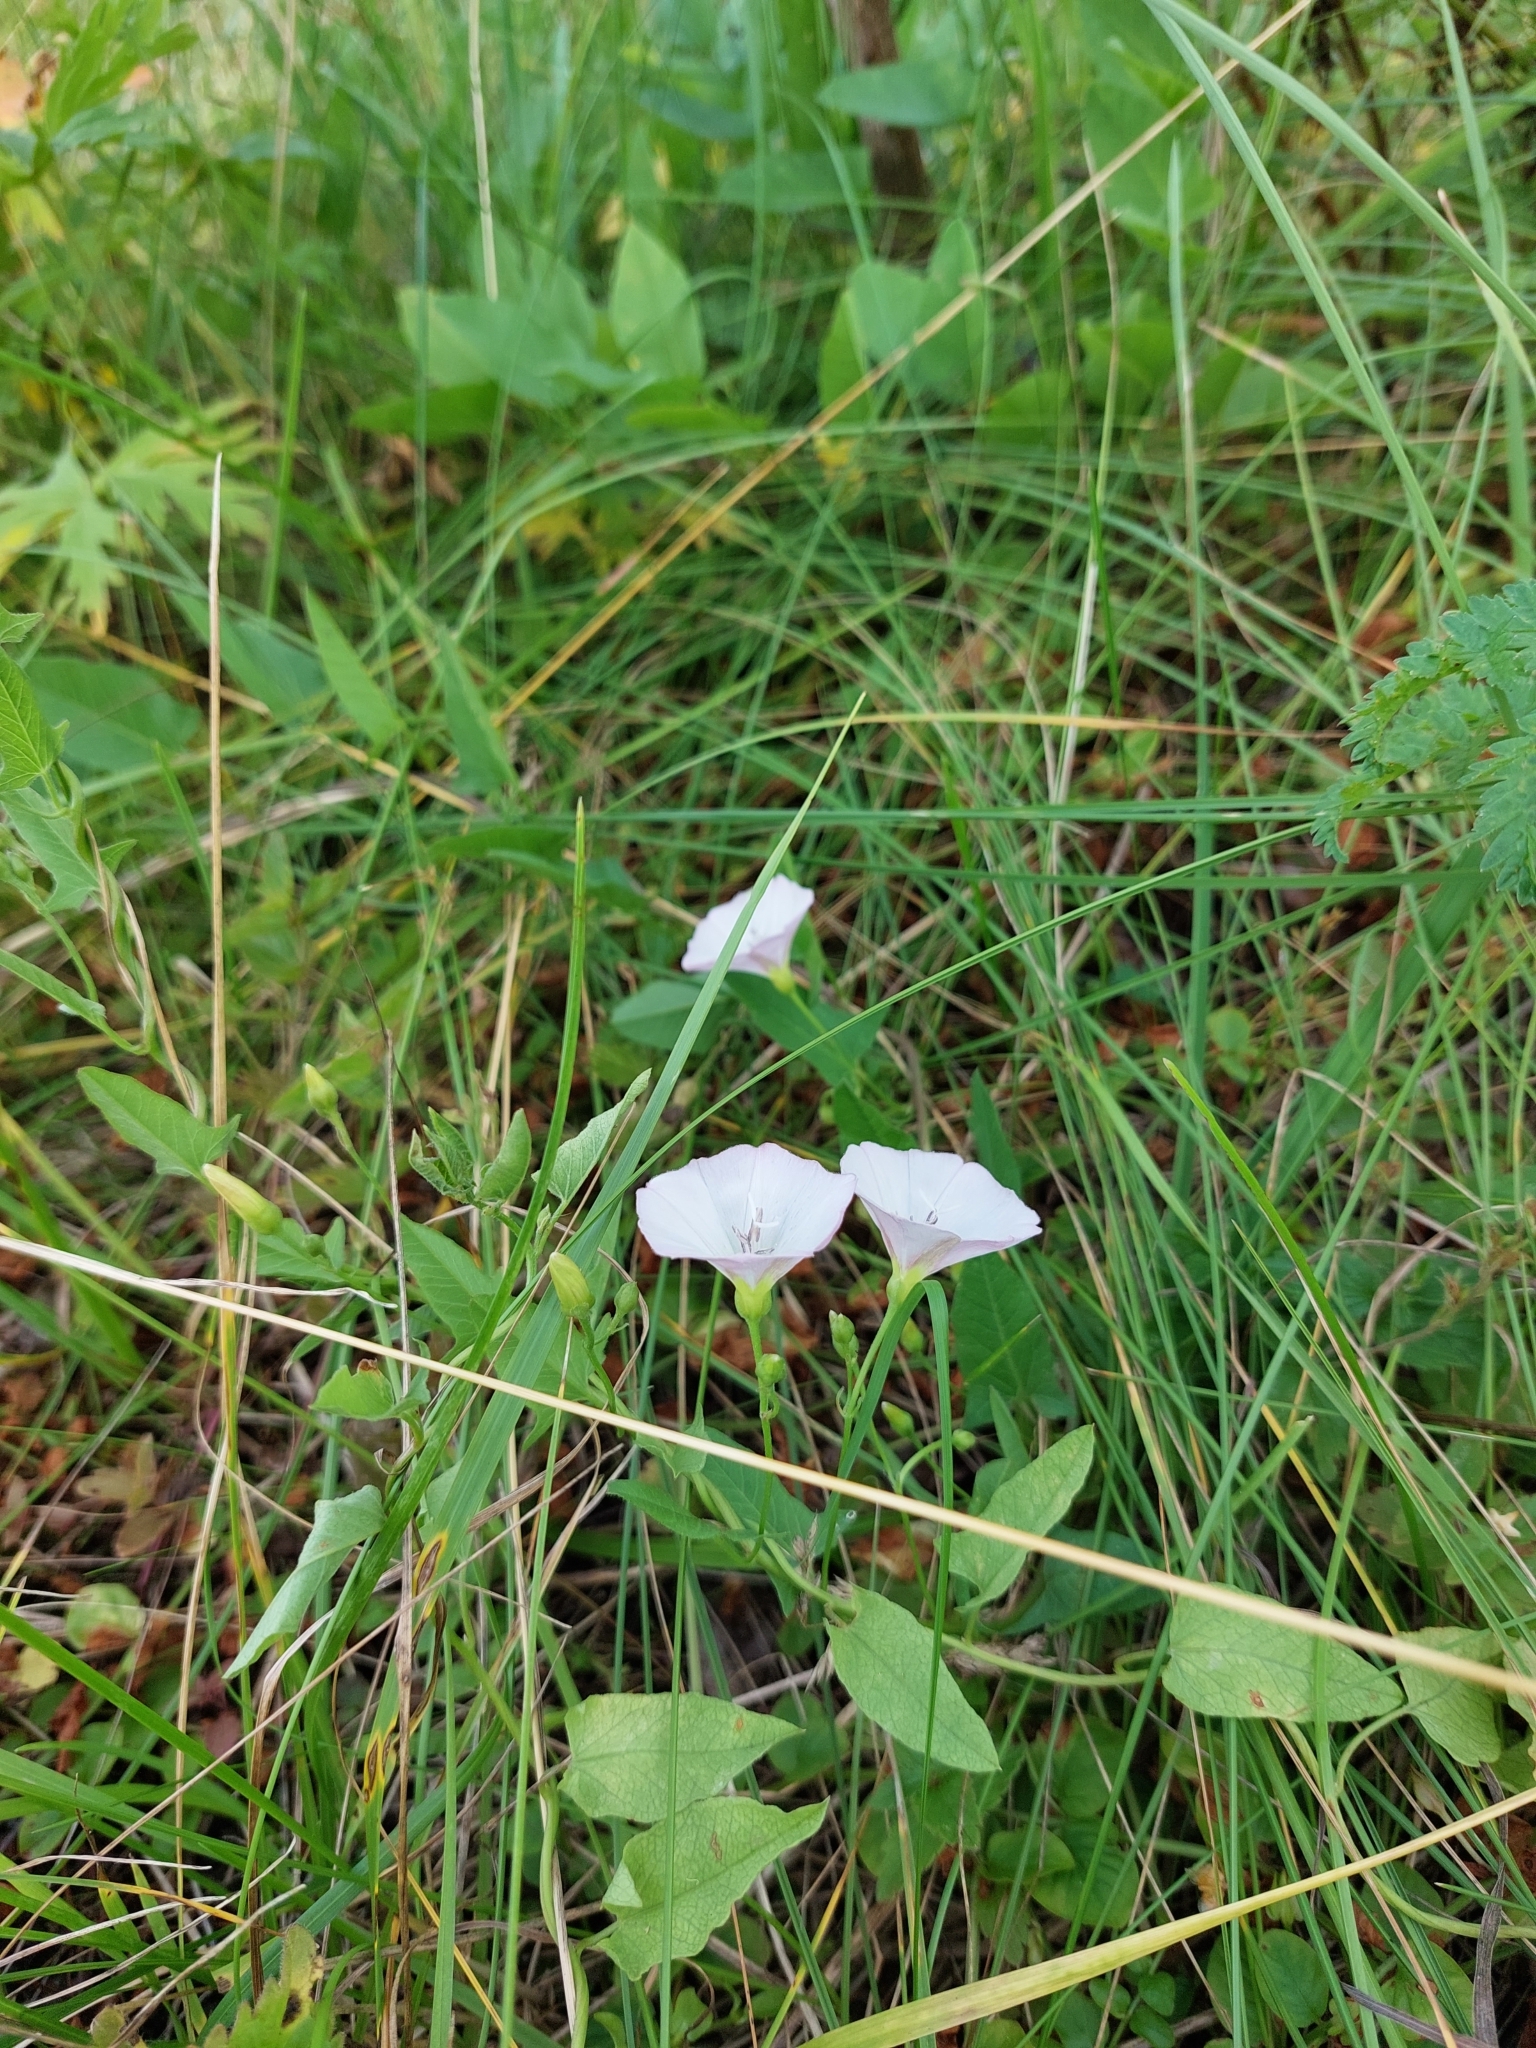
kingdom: Plantae
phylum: Tracheophyta
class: Magnoliopsida
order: Solanales
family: Convolvulaceae
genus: Convolvulus
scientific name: Convolvulus arvensis
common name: Field bindweed
